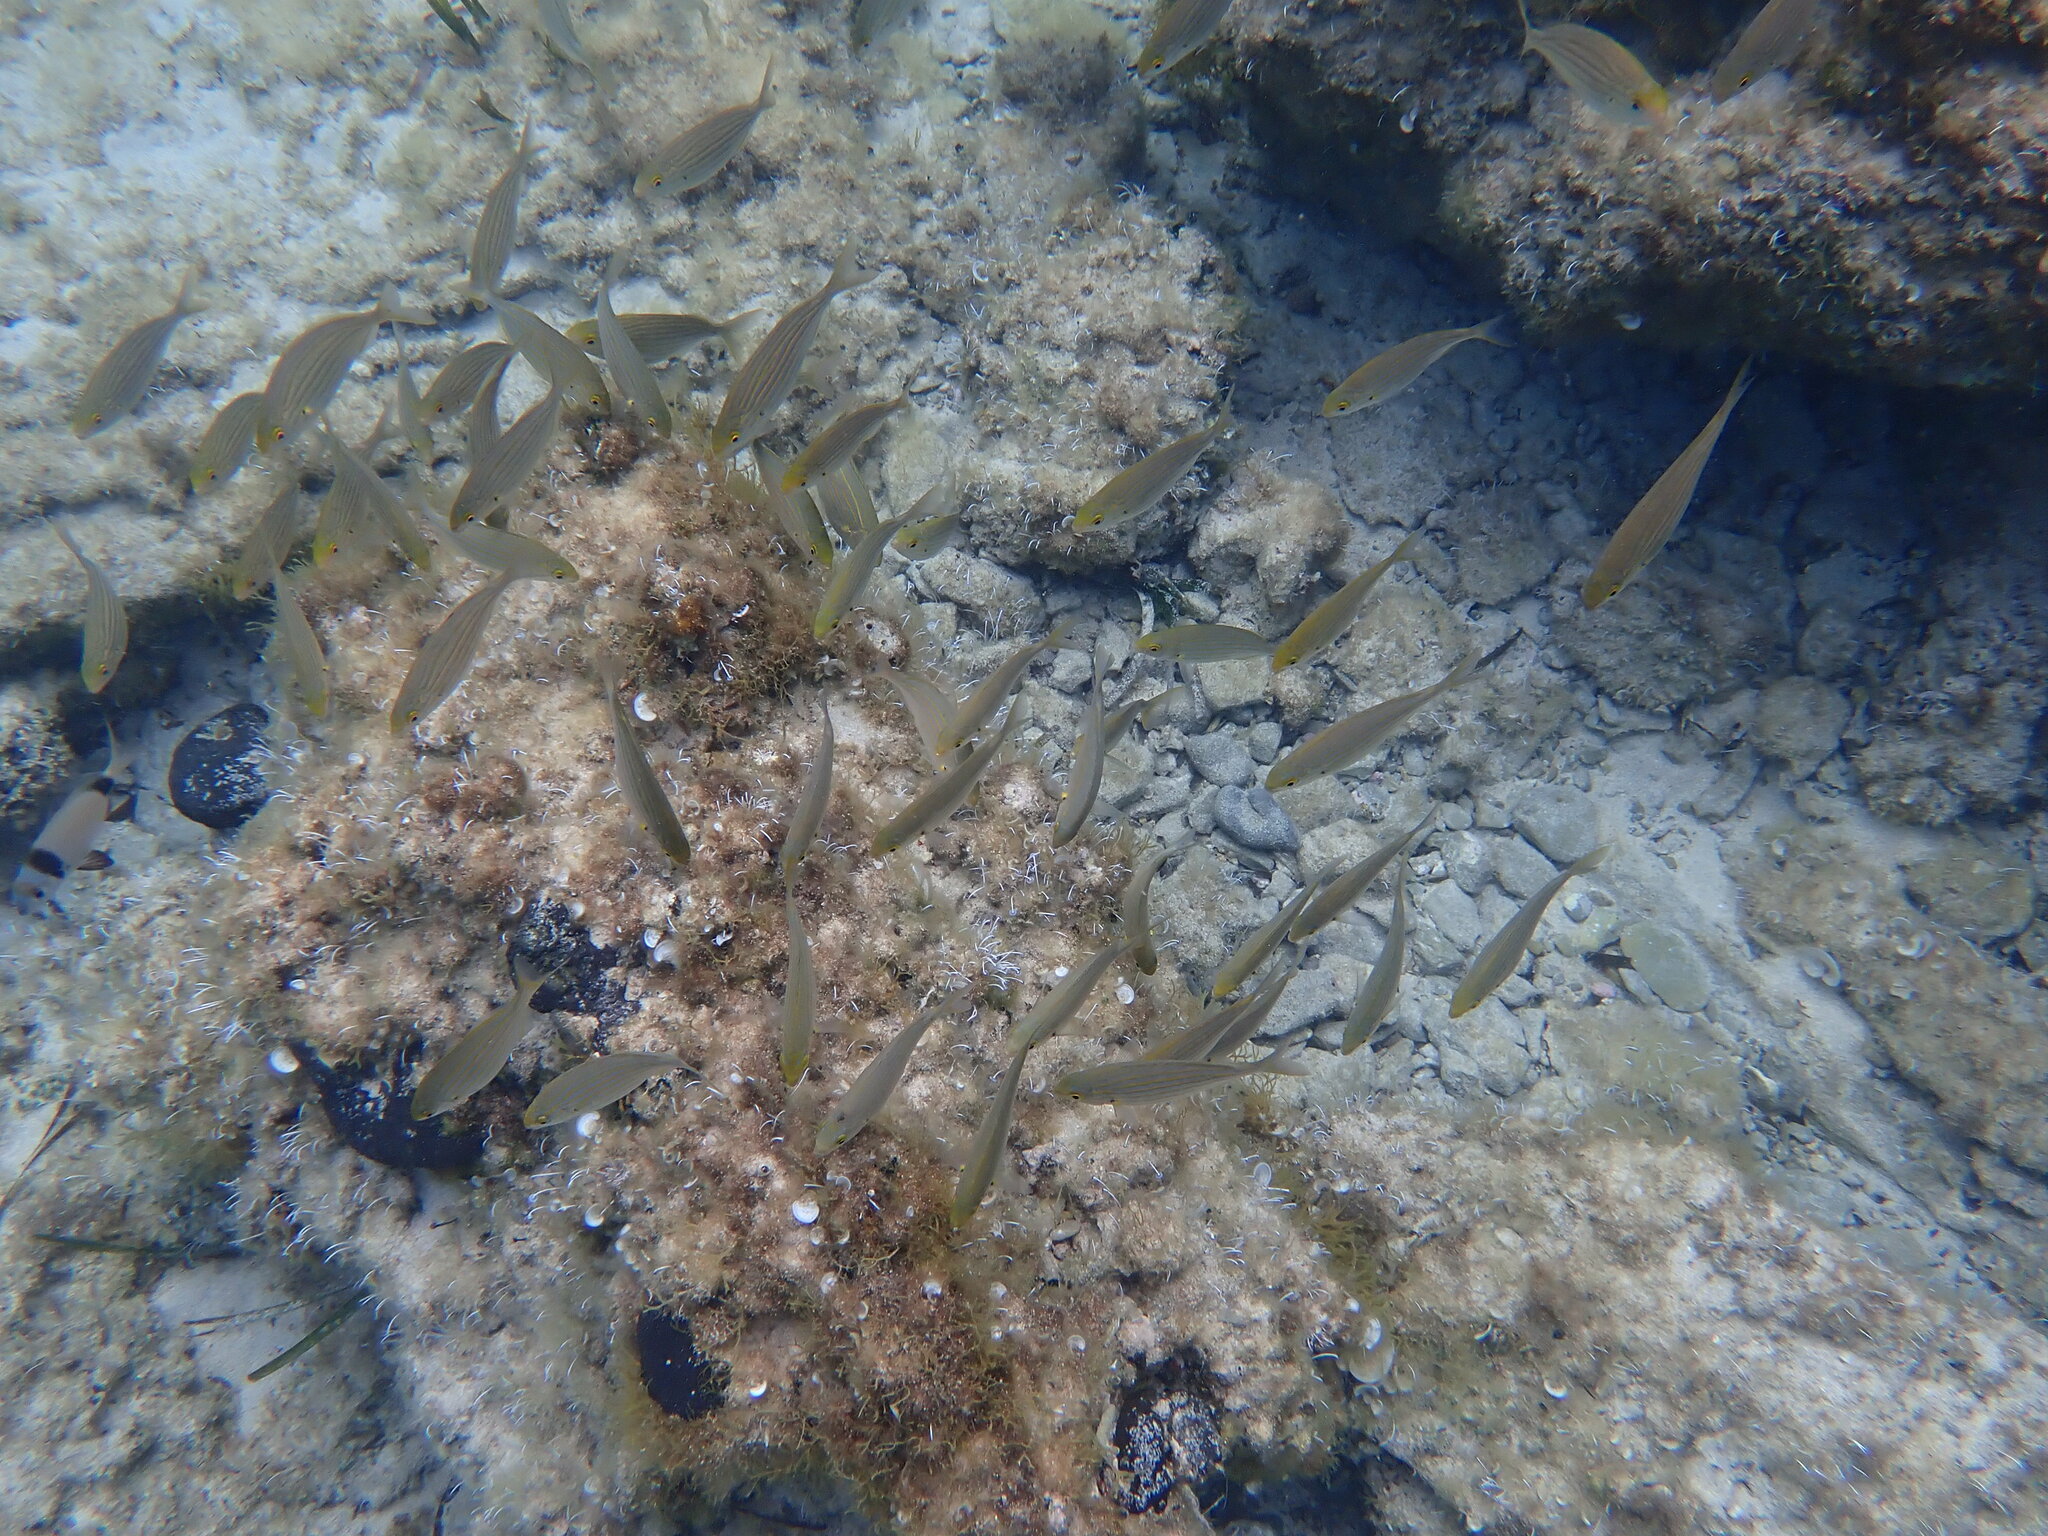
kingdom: Animalia
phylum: Chordata
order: Perciformes
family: Sparidae
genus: Sarpa
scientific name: Sarpa salpa
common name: Salema
